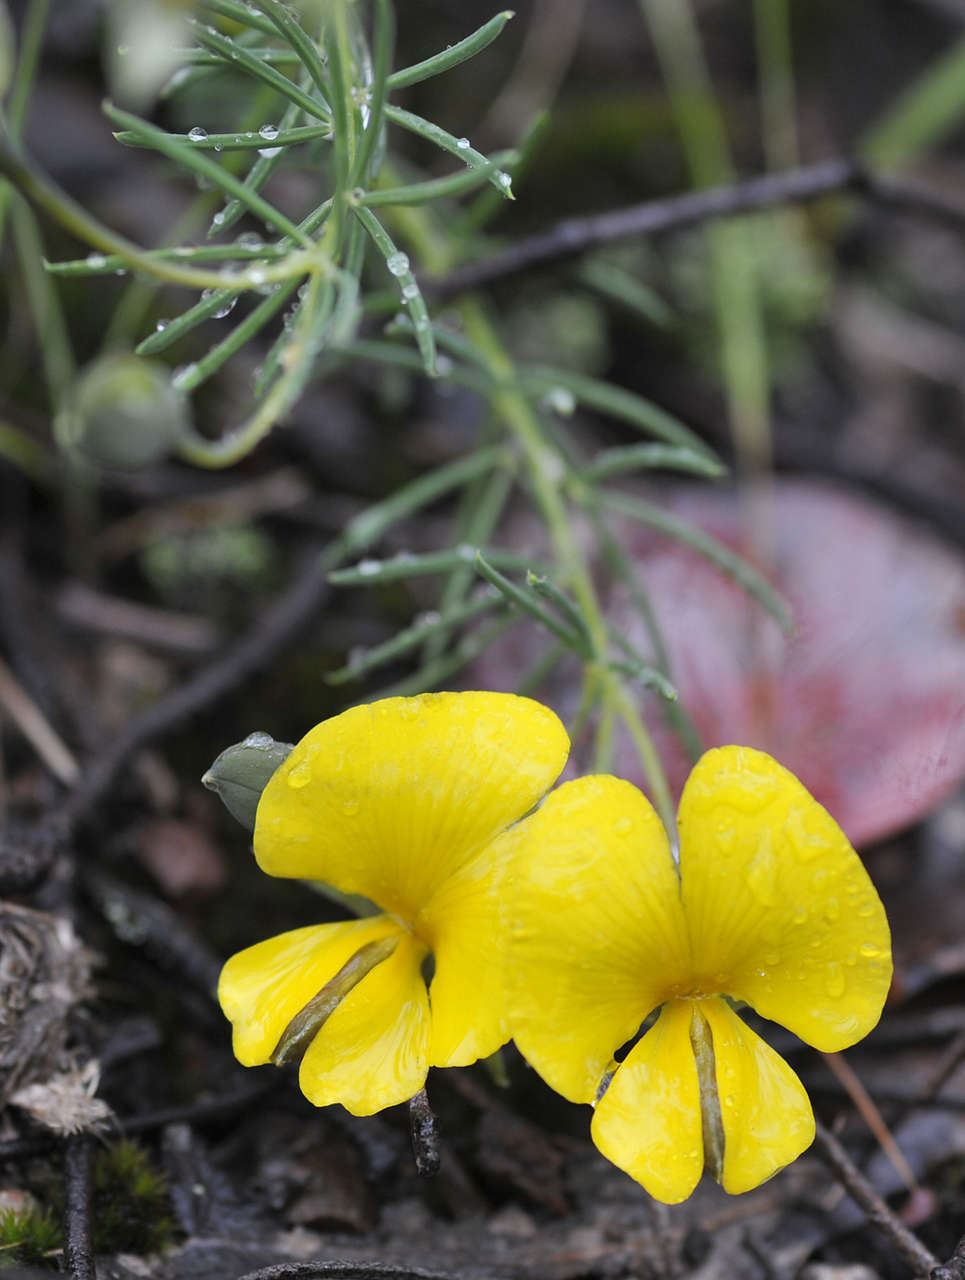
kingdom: Plantae
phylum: Tracheophyta
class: Magnoliopsida
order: Fabales
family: Fabaceae
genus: Gompholobium
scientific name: Gompholobium huegelii
